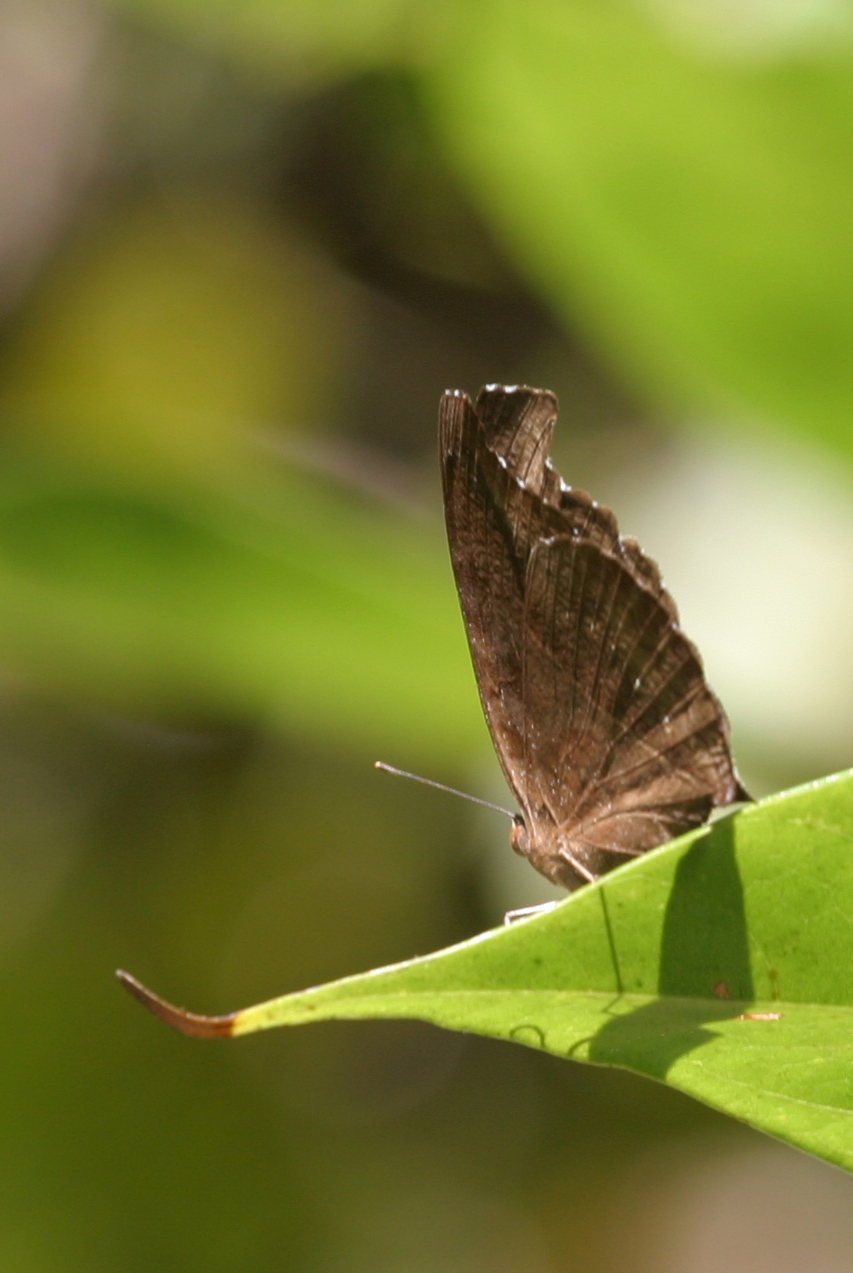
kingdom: Animalia
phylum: Arthropoda
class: Insecta
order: Lepidoptera
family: Nymphalidae
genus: Junonia
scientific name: Junonia iphita
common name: Chocolate pansy
